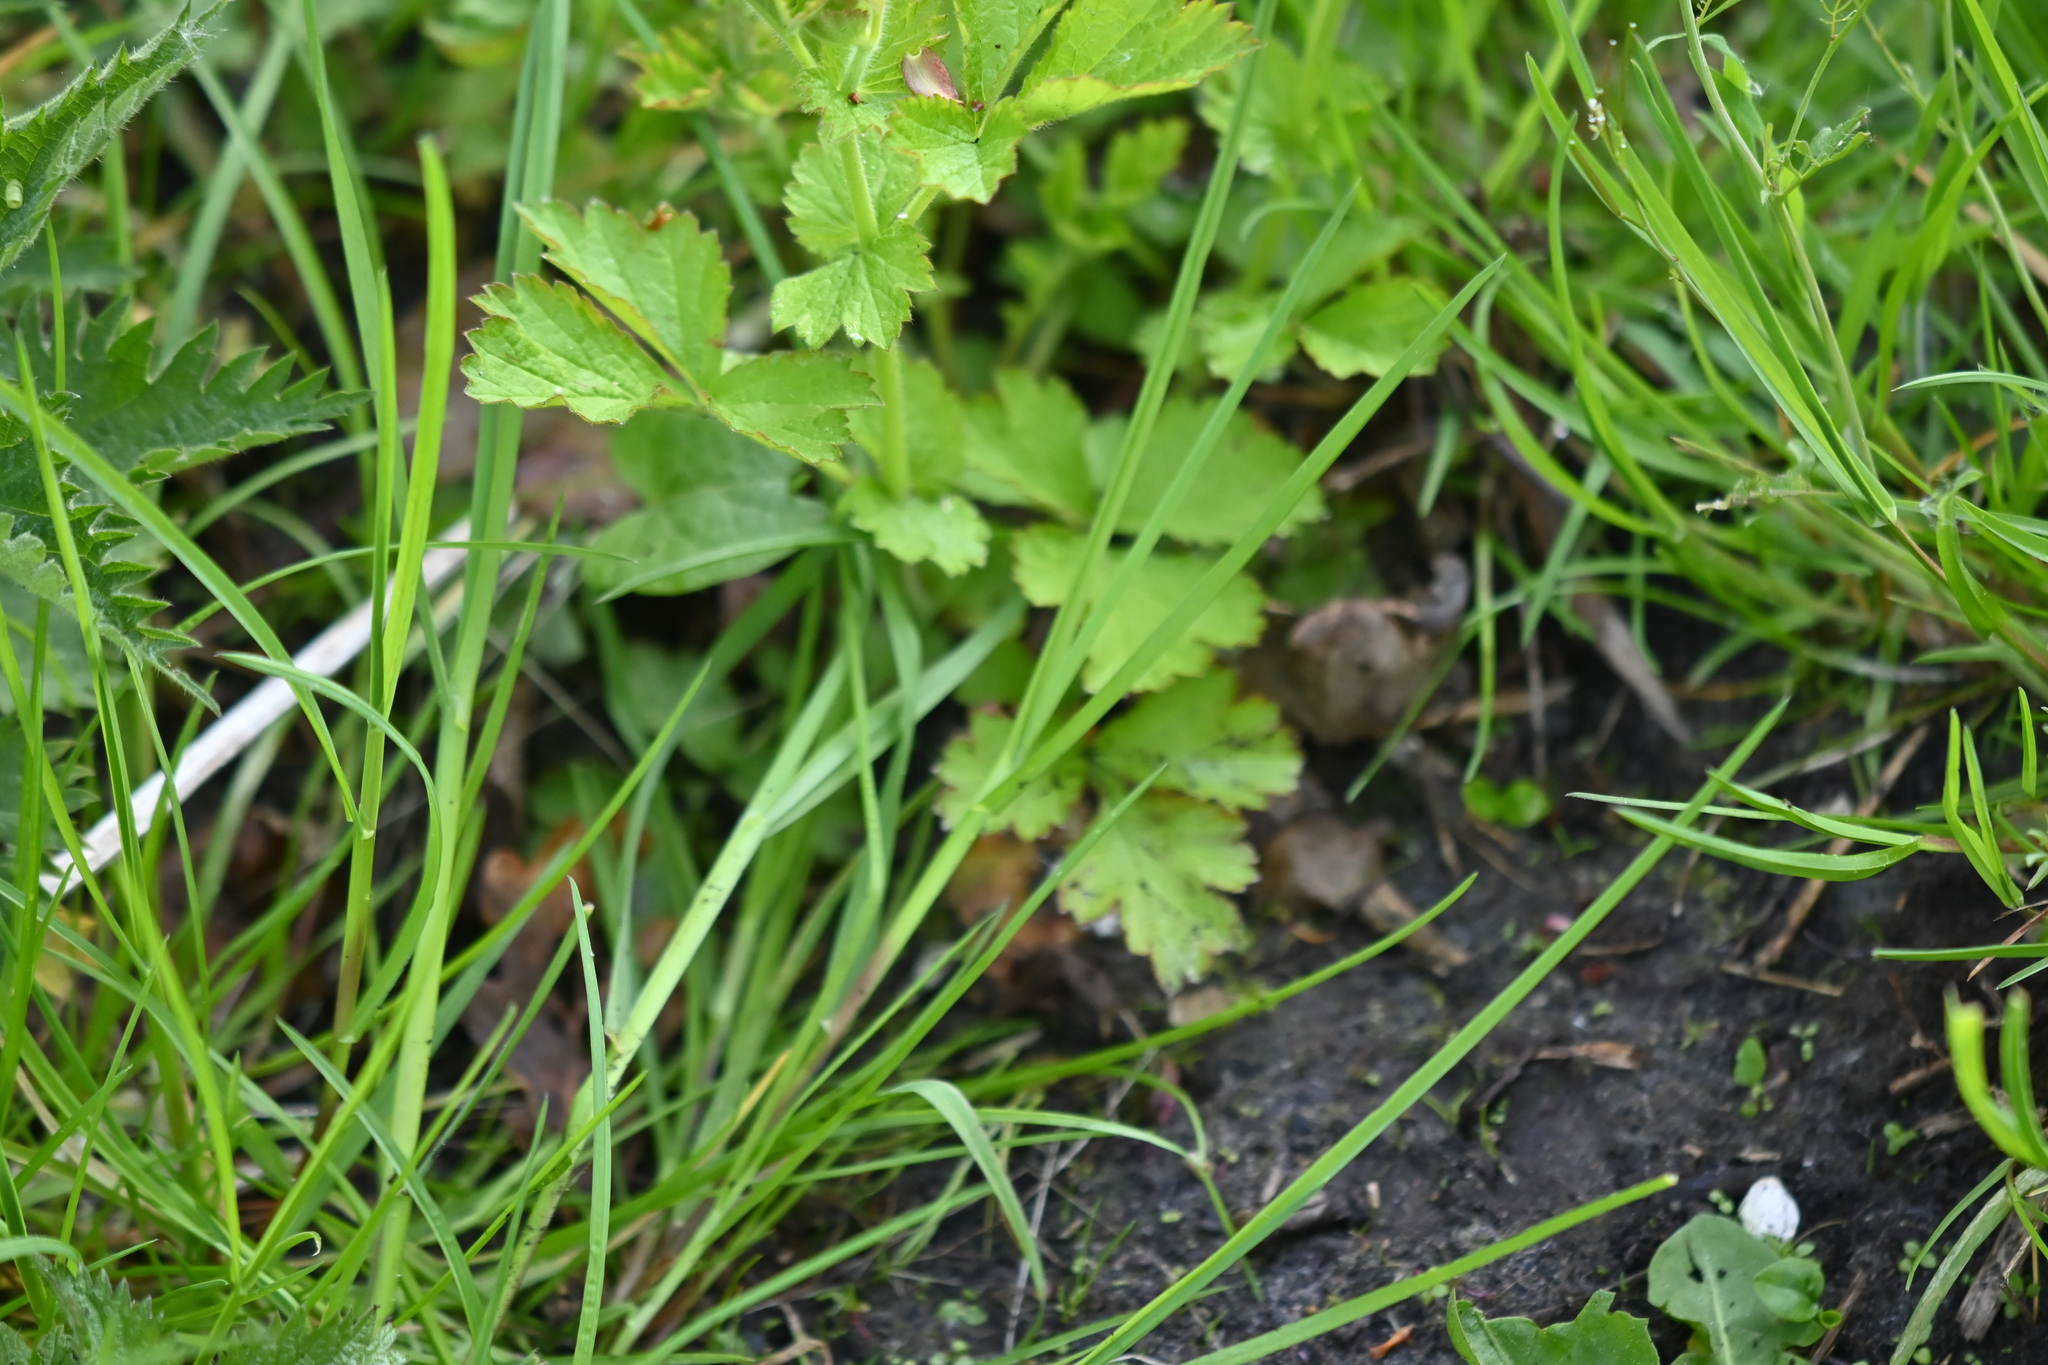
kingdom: Plantae
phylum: Tracheophyta
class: Magnoliopsida
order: Rosales
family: Rosaceae
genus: Geum
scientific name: Geum urbanum
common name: Wood avens
